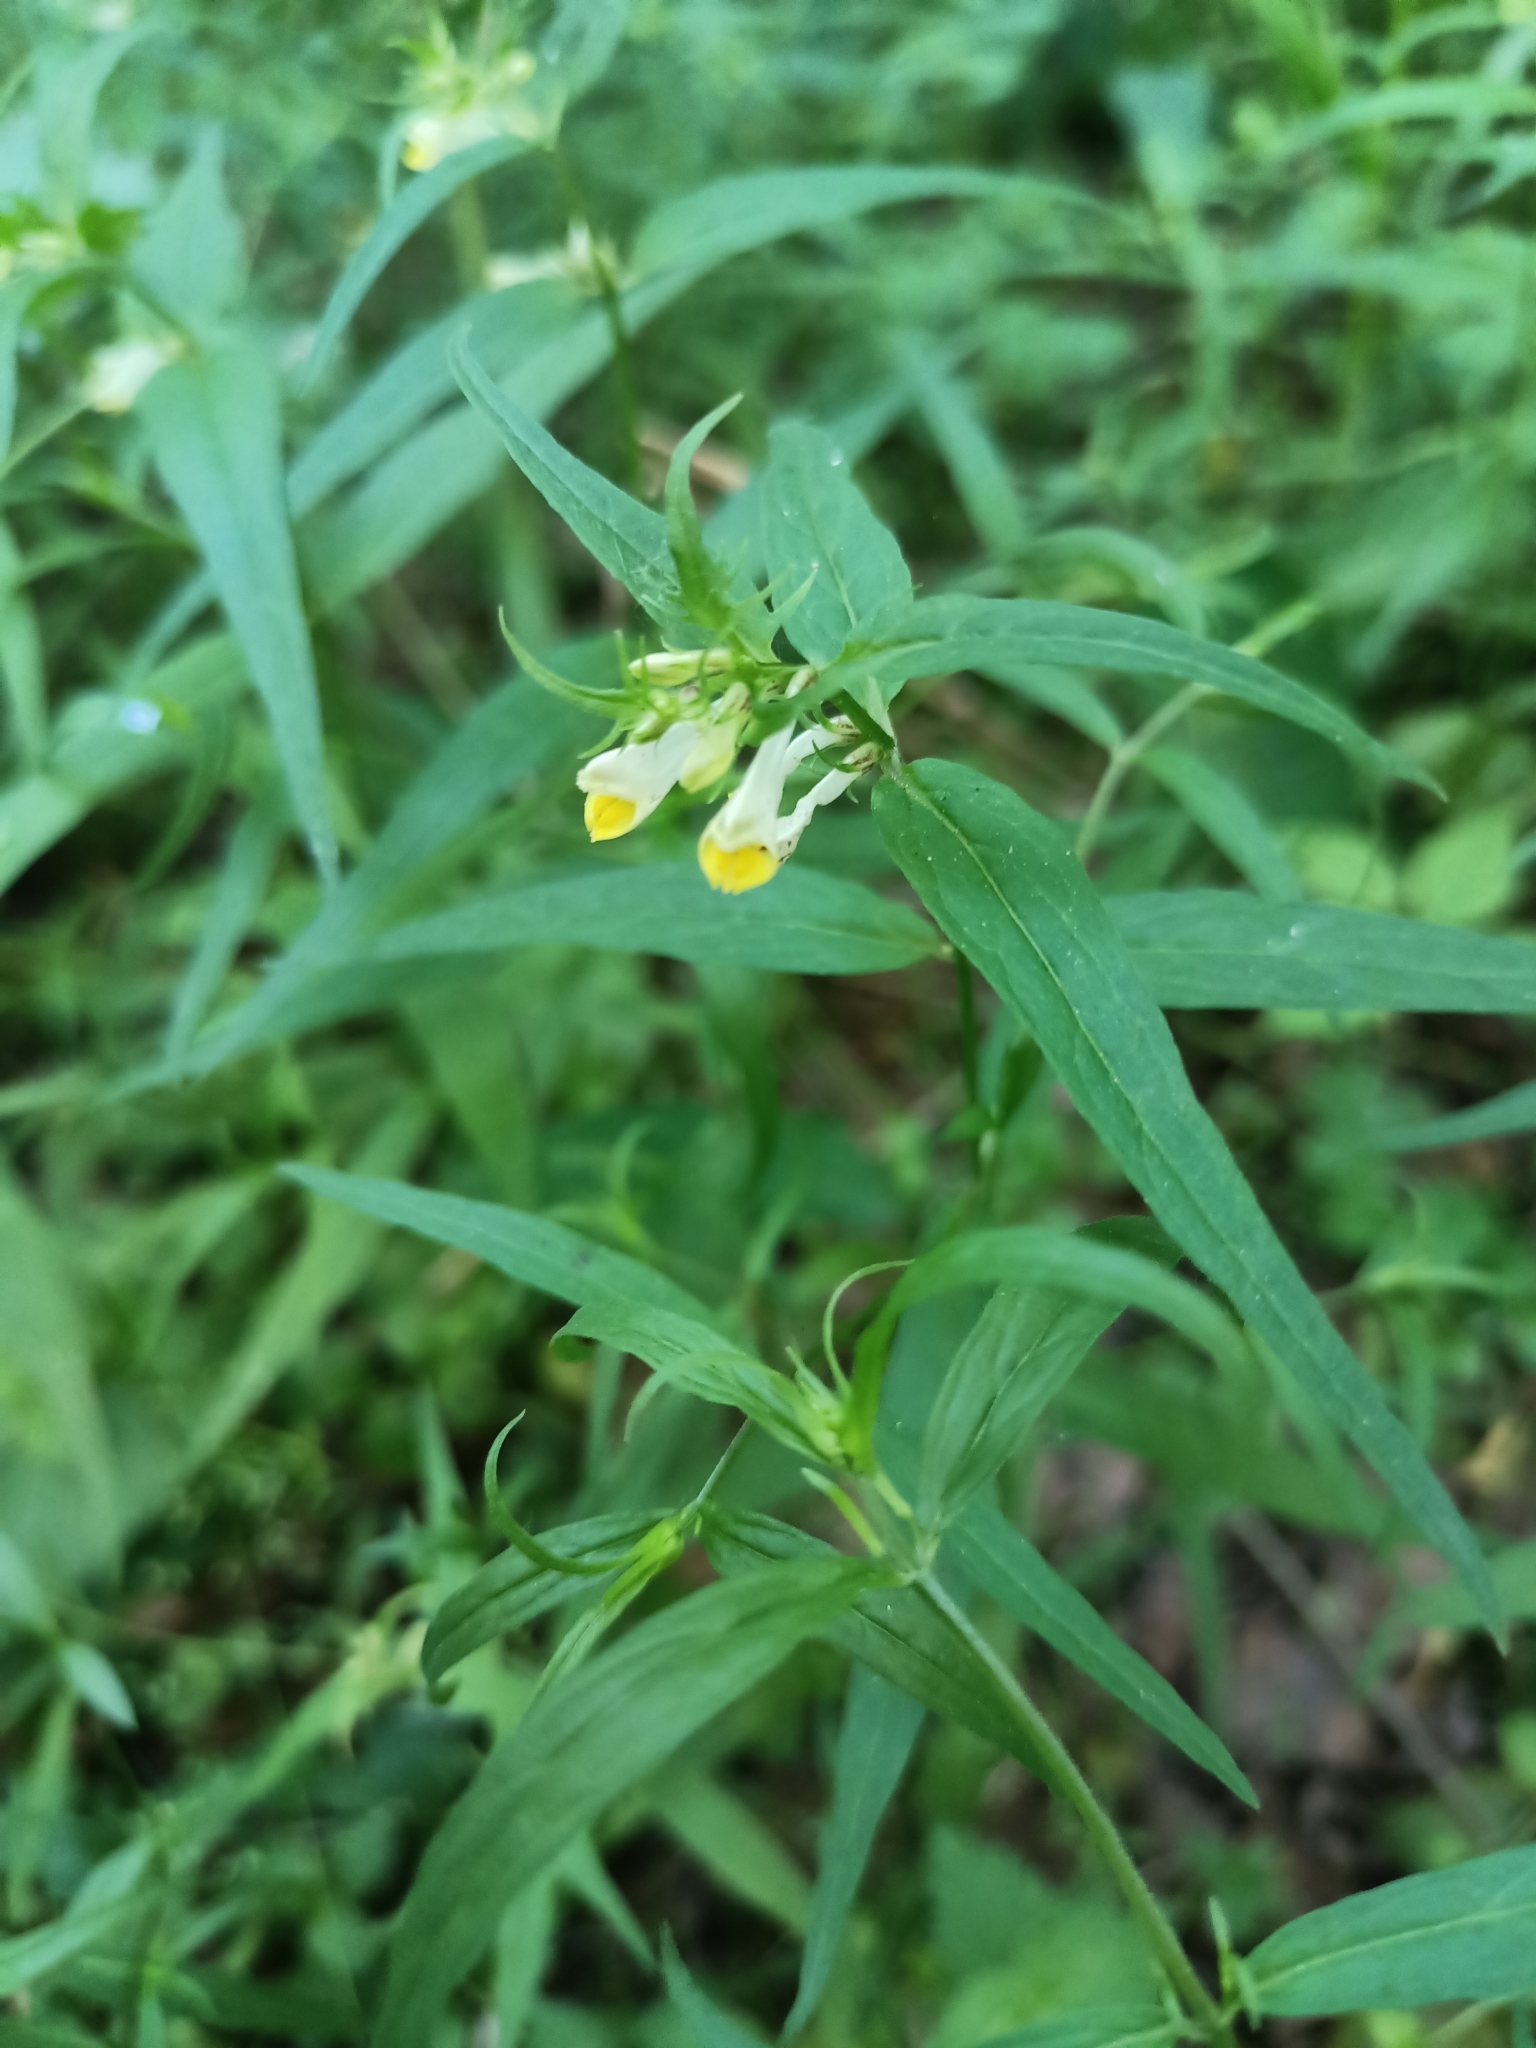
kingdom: Plantae
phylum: Tracheophyta
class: Magnoliopsida
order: Lamiales
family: Orobanchaceae
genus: Melampyrum
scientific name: Melampyrum pratense
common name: Common cow-wheat
